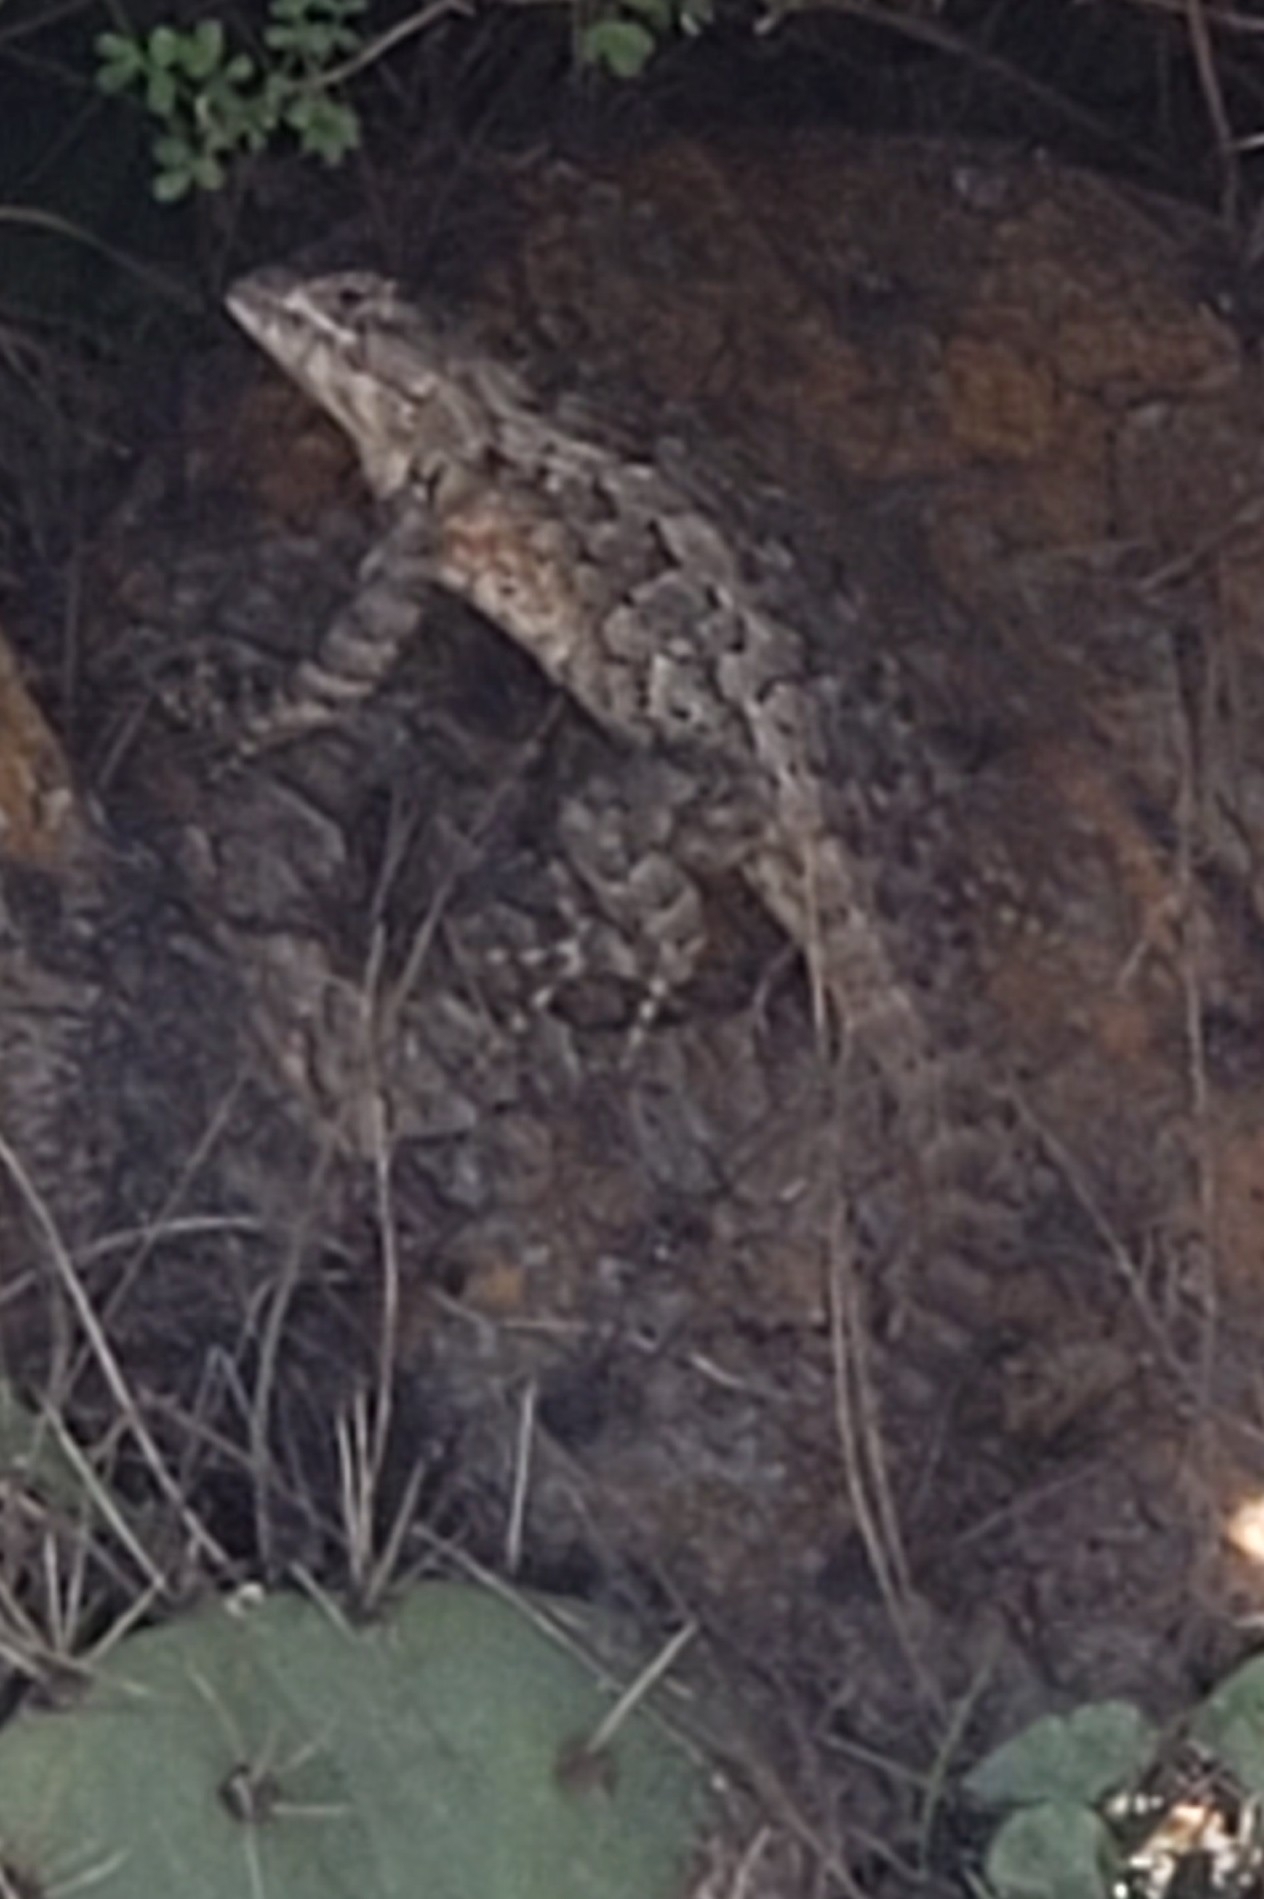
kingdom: Animalia
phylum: Chordata
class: Squamata
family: Phrynosomatidae
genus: Sceloporus
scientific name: Sceloporus spinosus
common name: Blue-spotted spiny lizard [caeruleopunctatus]
